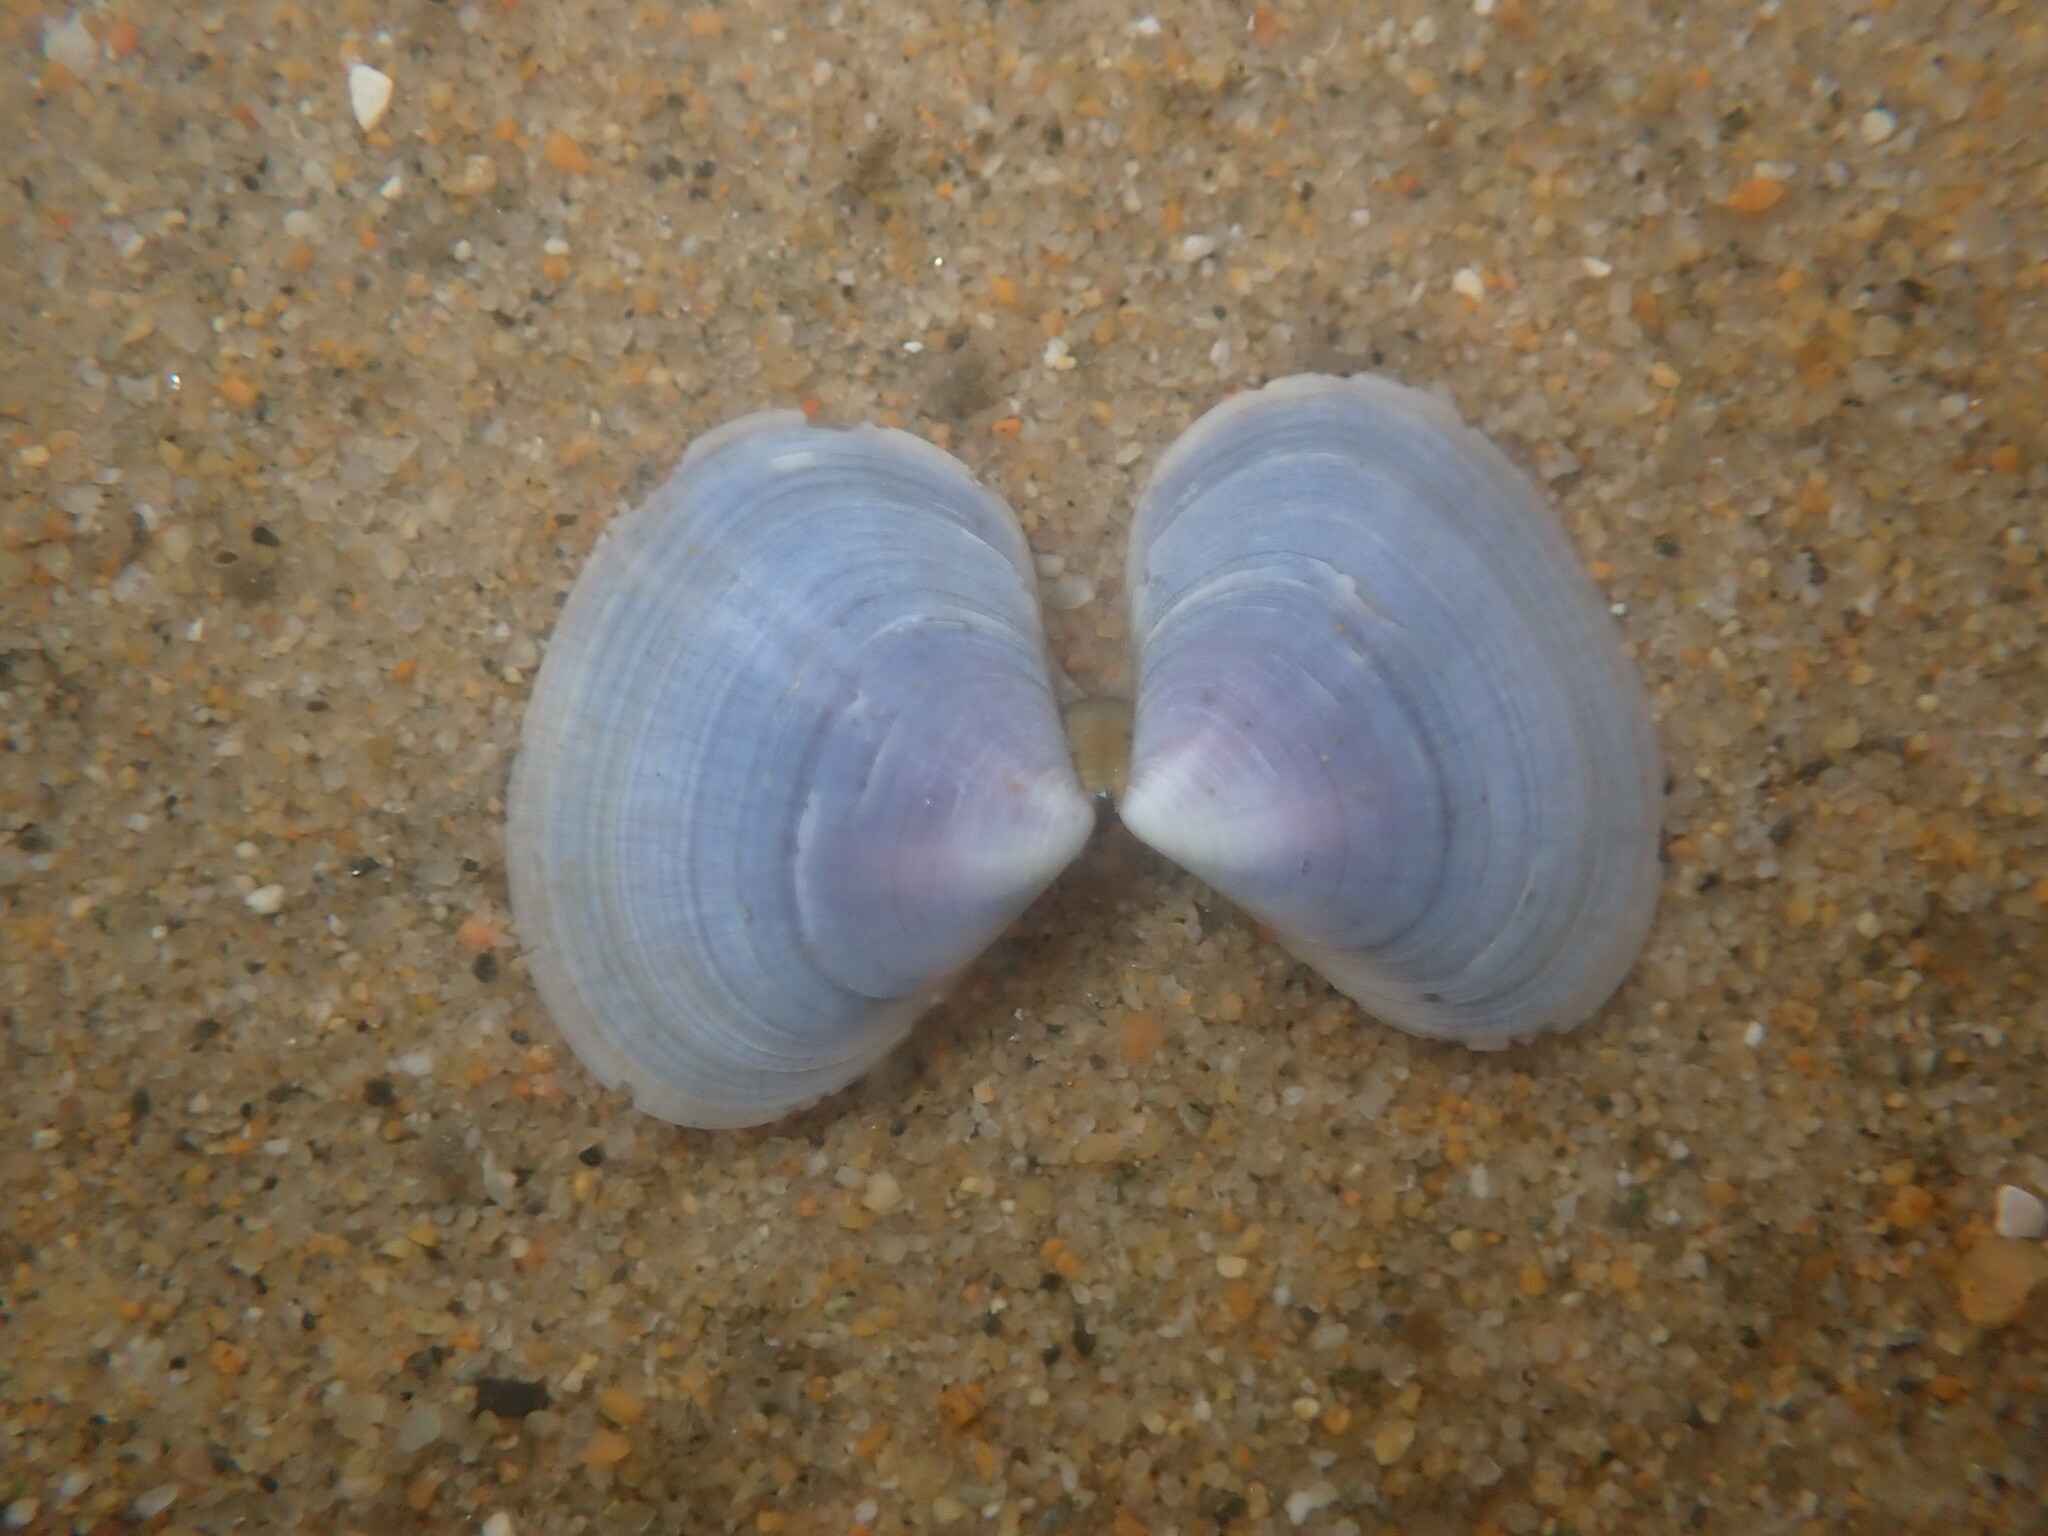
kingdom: Animalia
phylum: Mollusca
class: Bivalvia
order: Cardiida
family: Psammobiidae
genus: Nuttallia
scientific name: Nuttallia nuttallii
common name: California mahogany-clam
